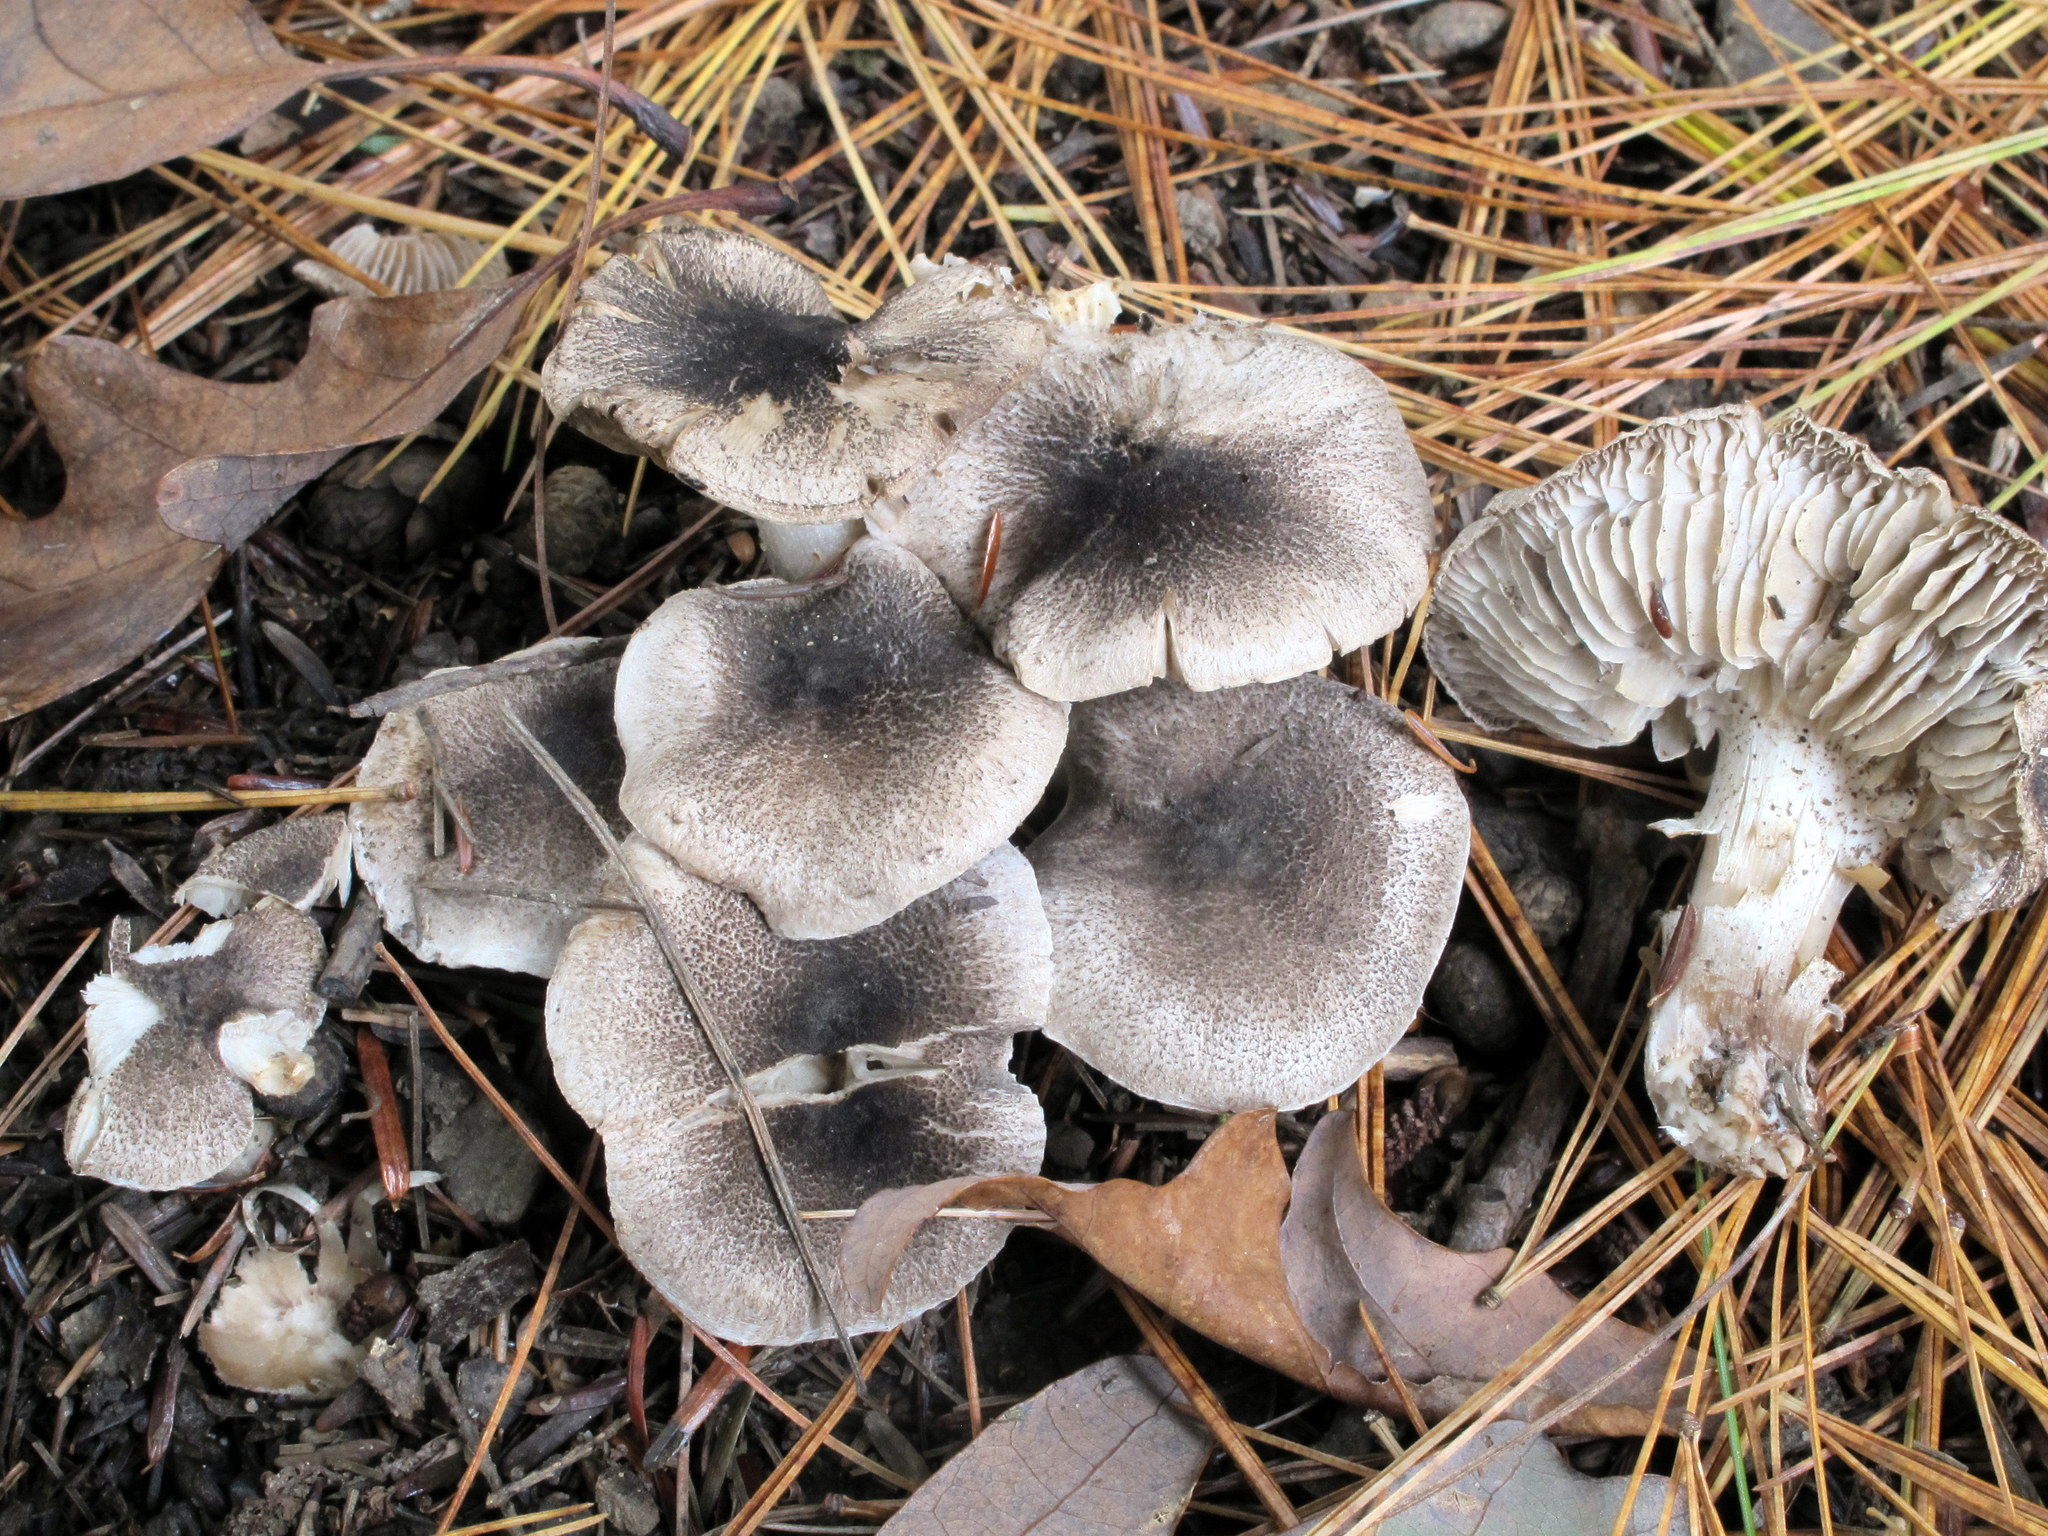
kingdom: Fungi
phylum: Basidiomycota
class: Agaricomycetes
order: Agaricales
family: Tricholomataceae
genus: Tricholoma
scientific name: Tricholoma terreum
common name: Grey knight
